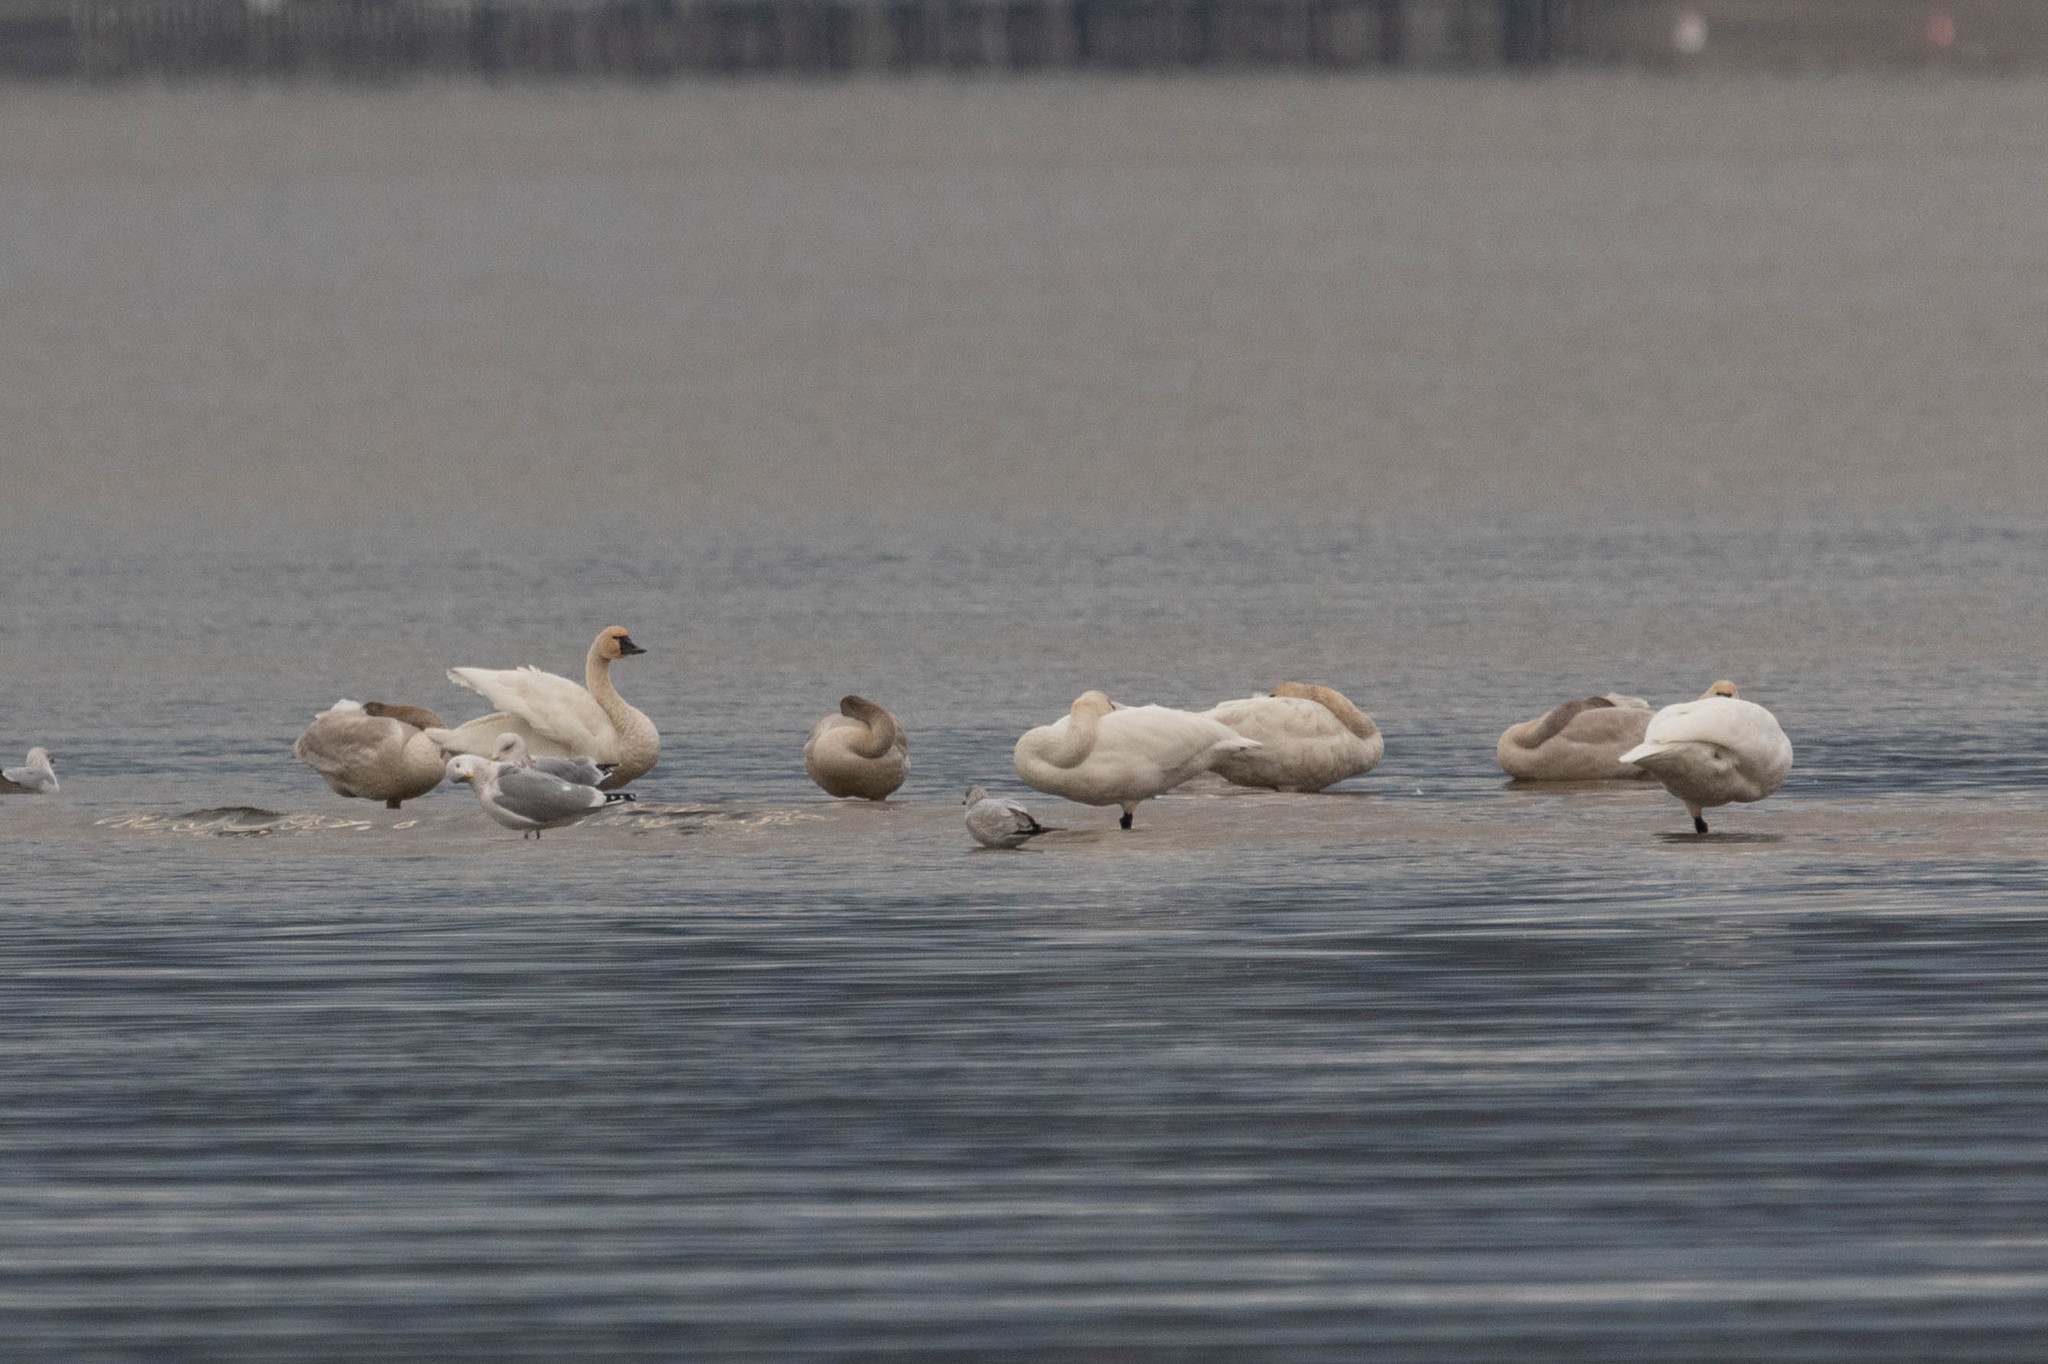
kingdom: Animalia
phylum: Chordata
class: Aves
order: Anseriformes
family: Anatidae
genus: Cygnus
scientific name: Cygnus columbianus
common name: Tundra swan
